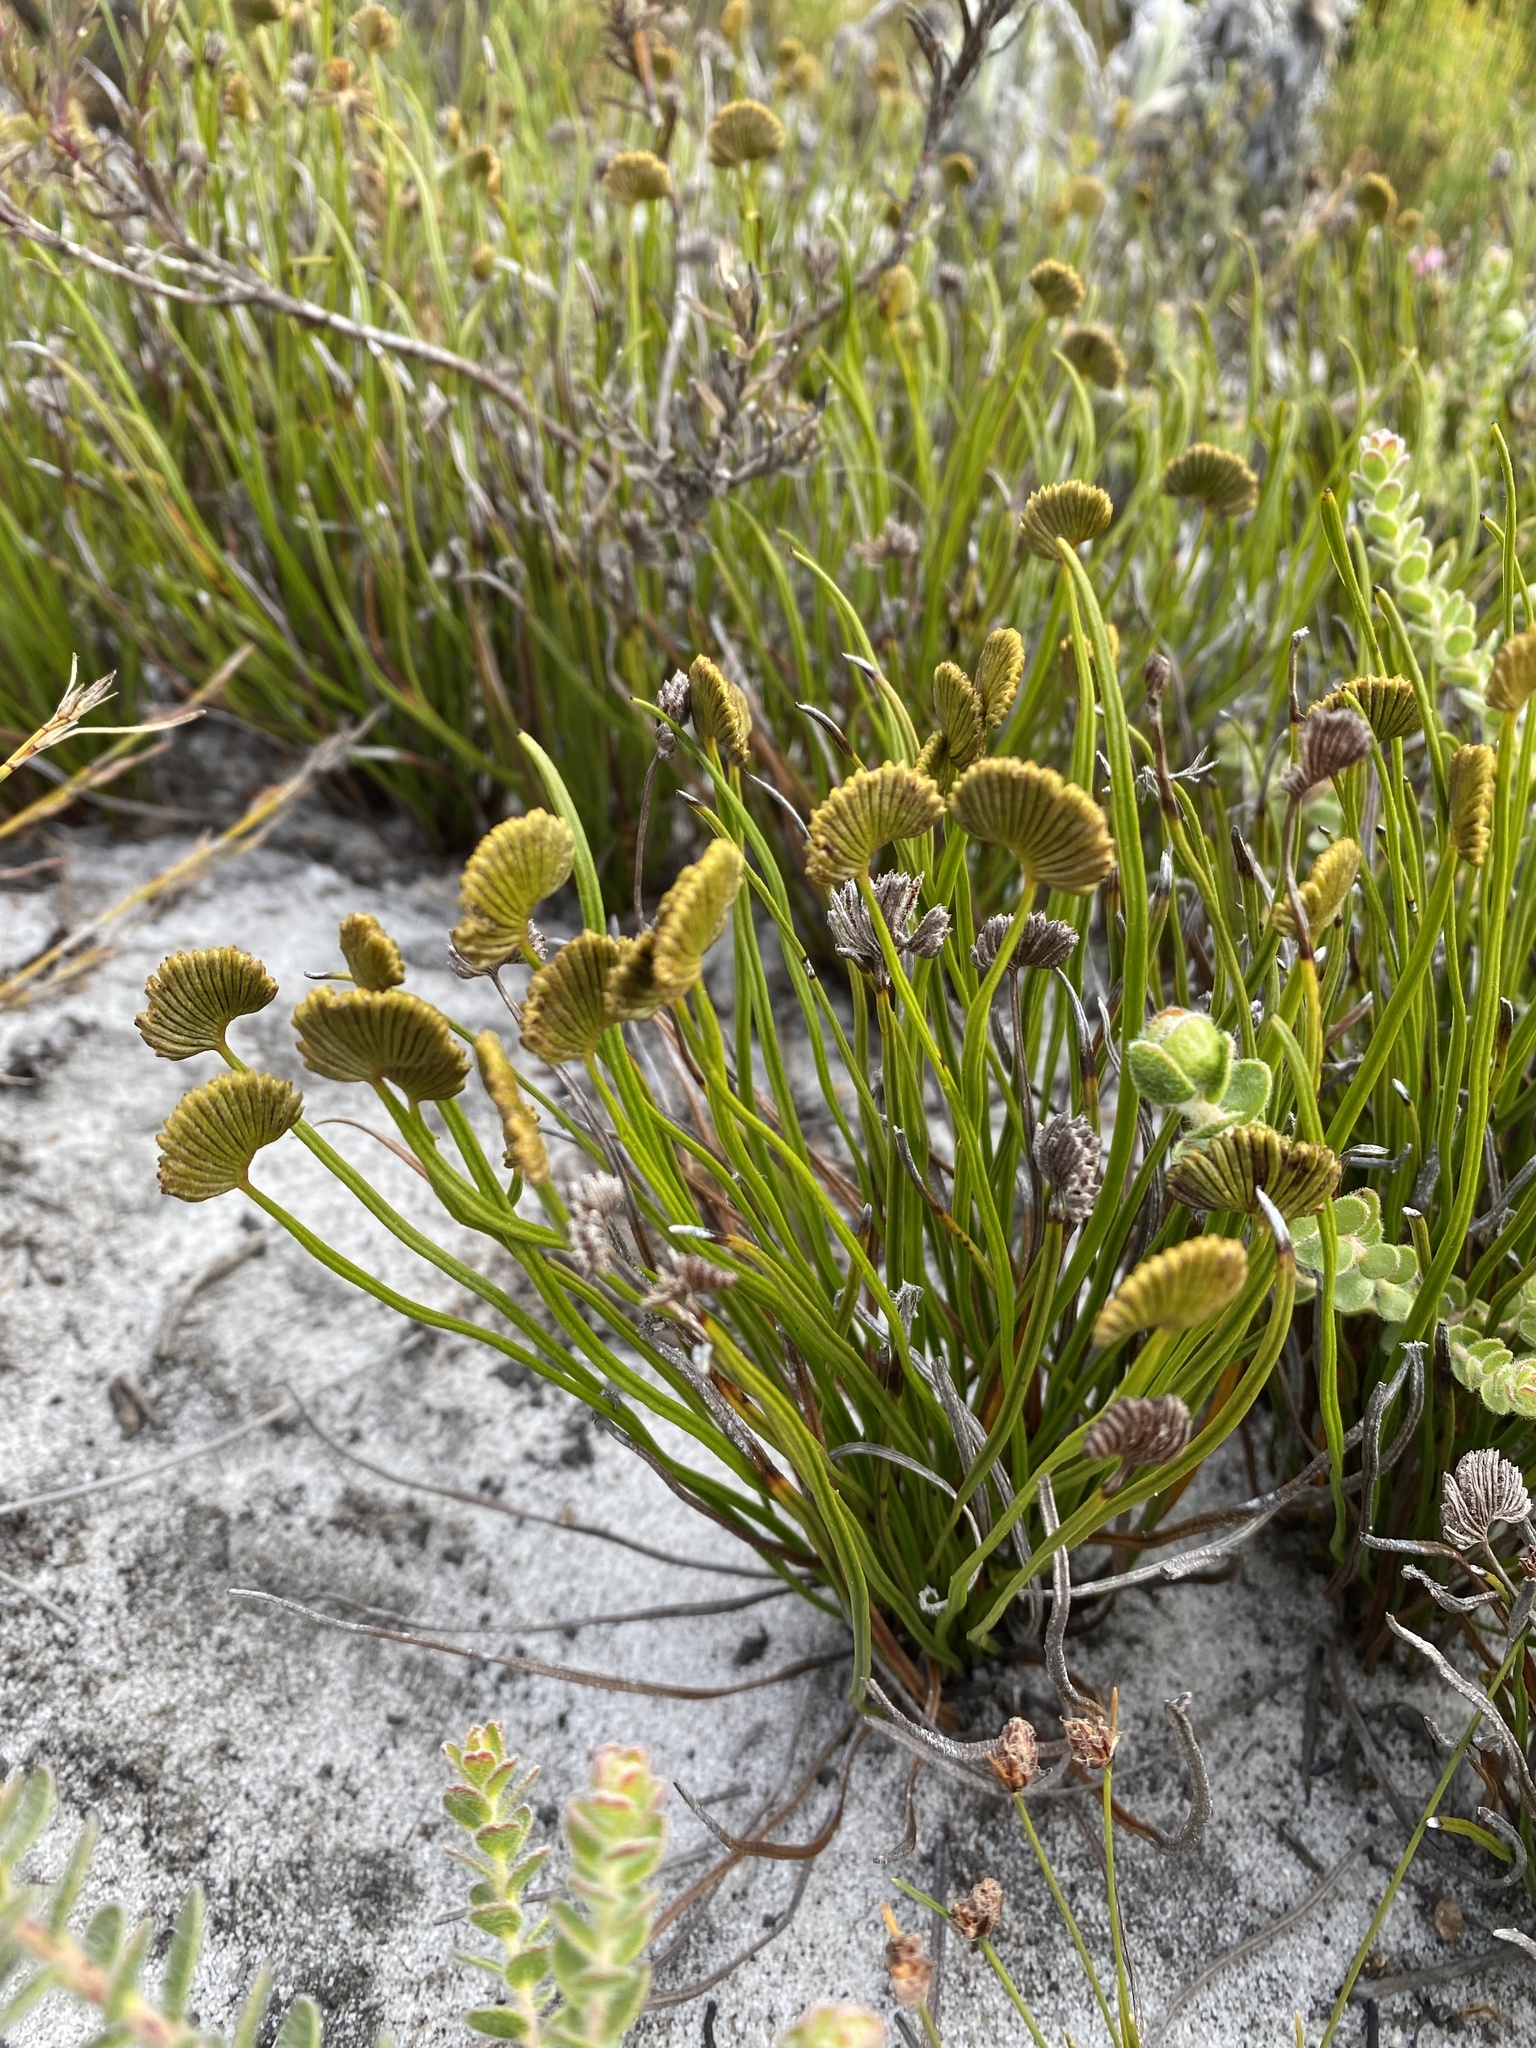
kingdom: Plantae
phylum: Tracheophyta
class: Polypodiopsida
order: Schizaeales
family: Schizaeaceae
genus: Schizaea
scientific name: Schizaea pectinata
